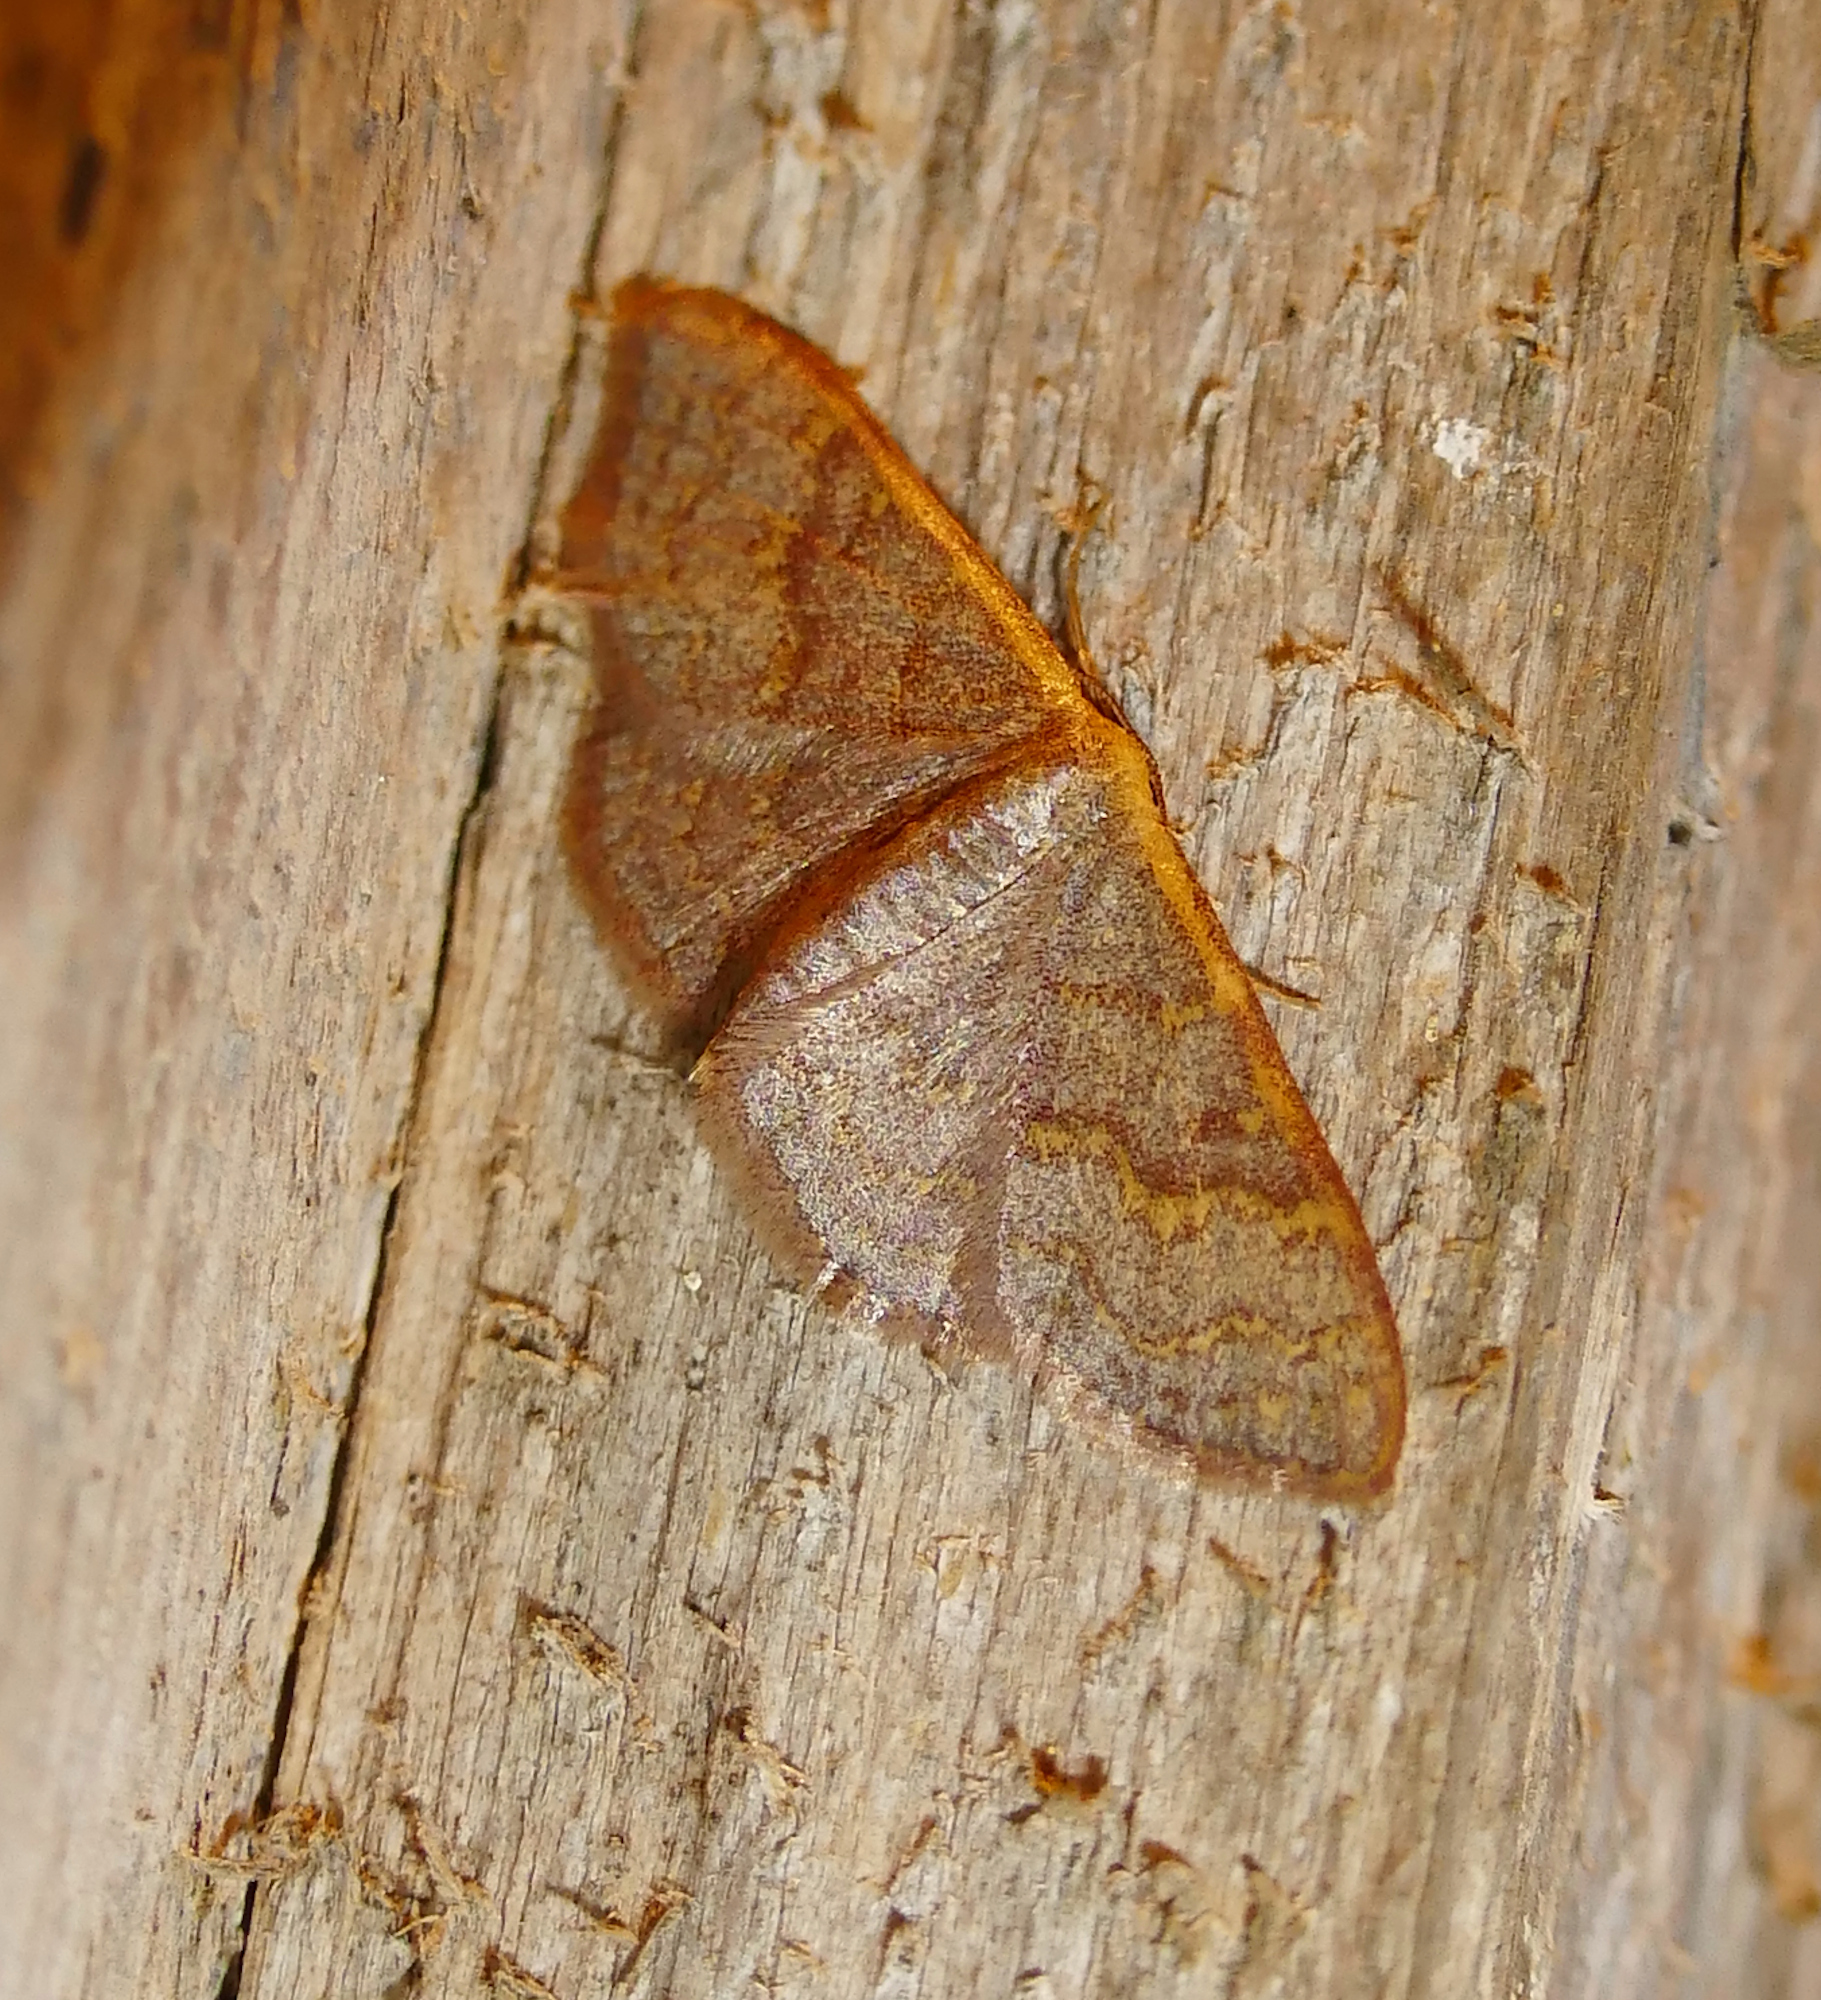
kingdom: Animalia
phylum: Arthropoda
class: Insecta
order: Lepidoptera
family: Geometridae
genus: Leptostales
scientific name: Leptostales pannaria
